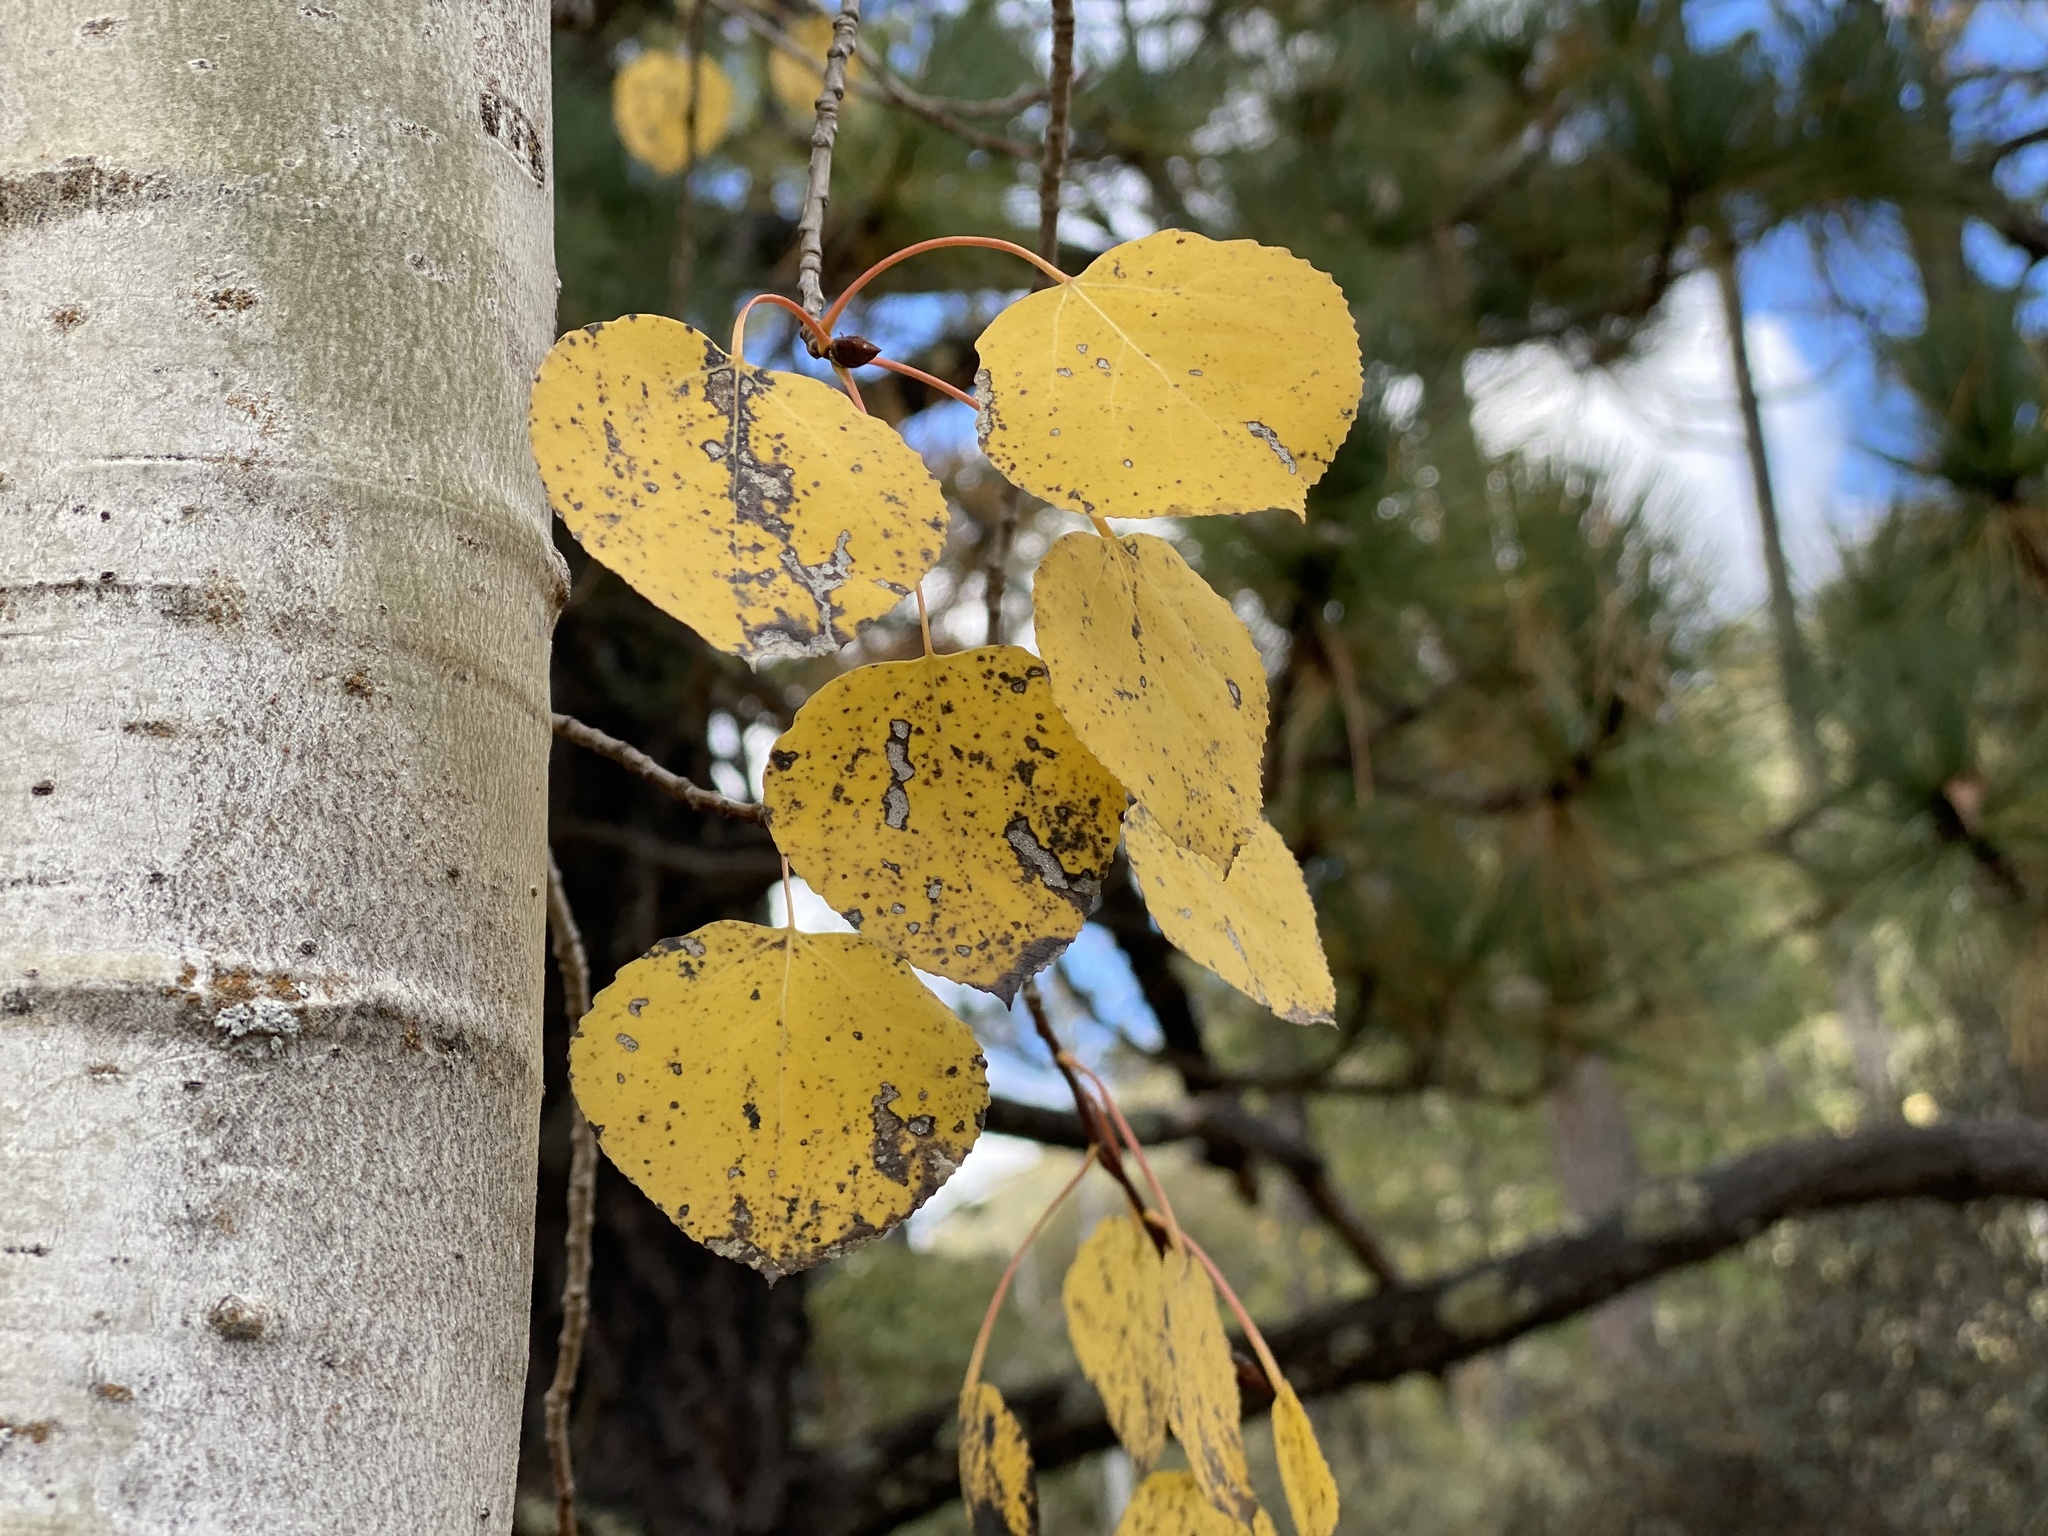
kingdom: Plantae
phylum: Tracheophyta
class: Magnoliopsida
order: Malpighiales
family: Salicaceae
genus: Populus
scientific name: Populus tremuloides
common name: Quaking aspen
